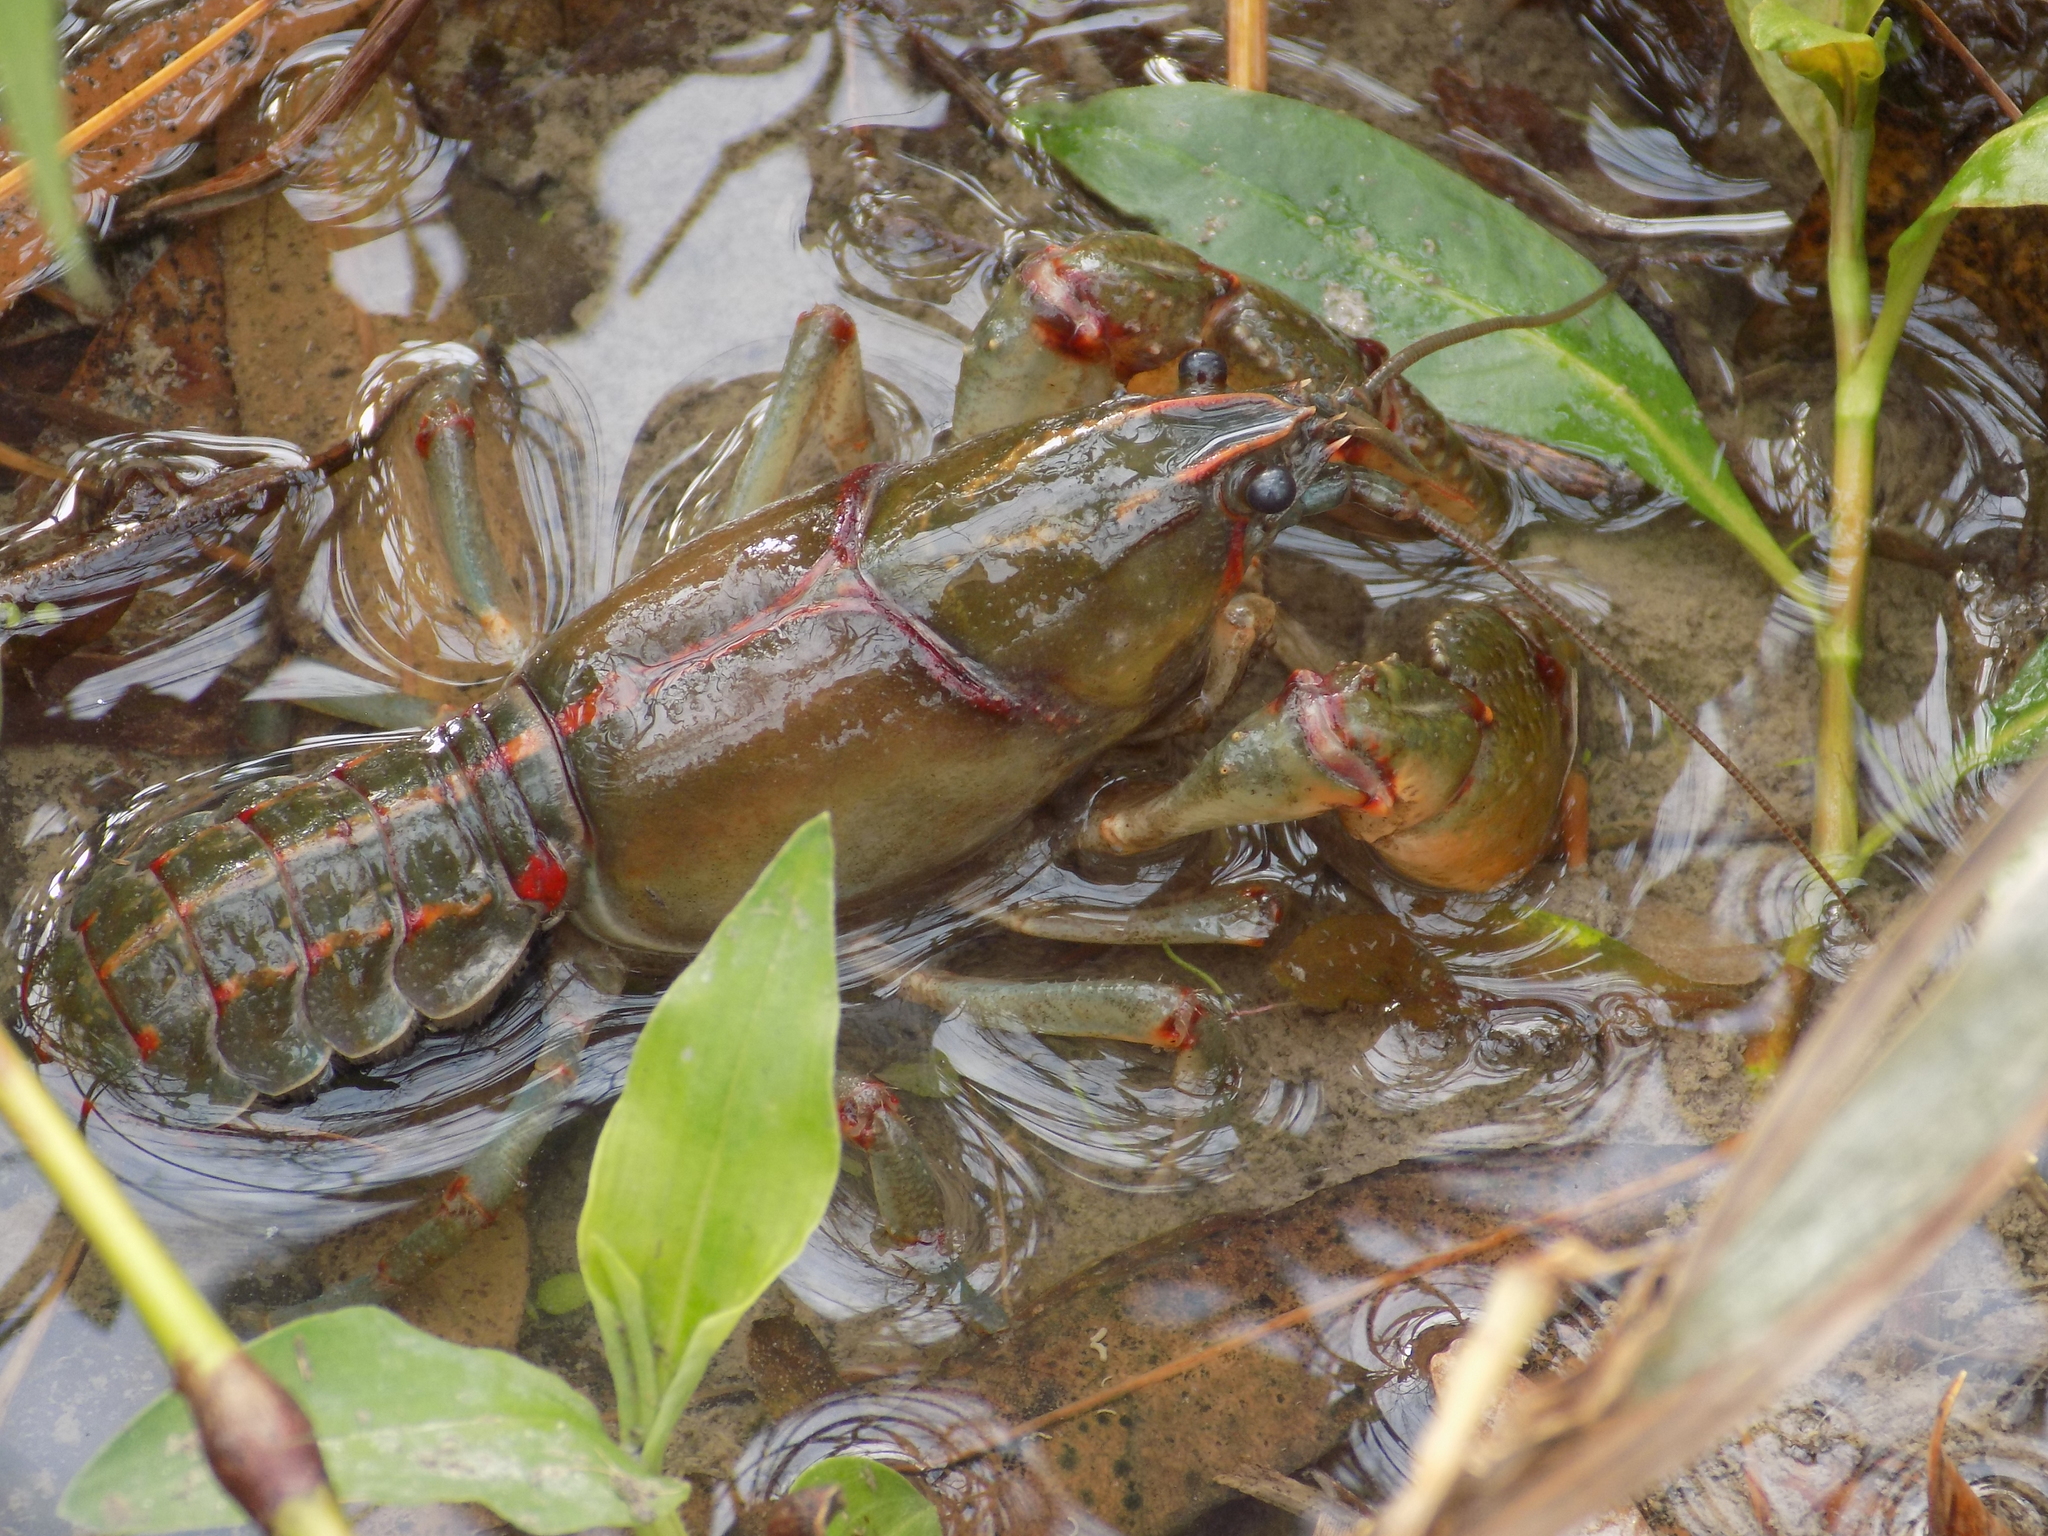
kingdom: Animalia
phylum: Arthropoda
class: Malacostraca
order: Decapoda
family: Cambaridae
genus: Lacunicambarus
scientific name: Lacunicambarus ludovicianus
